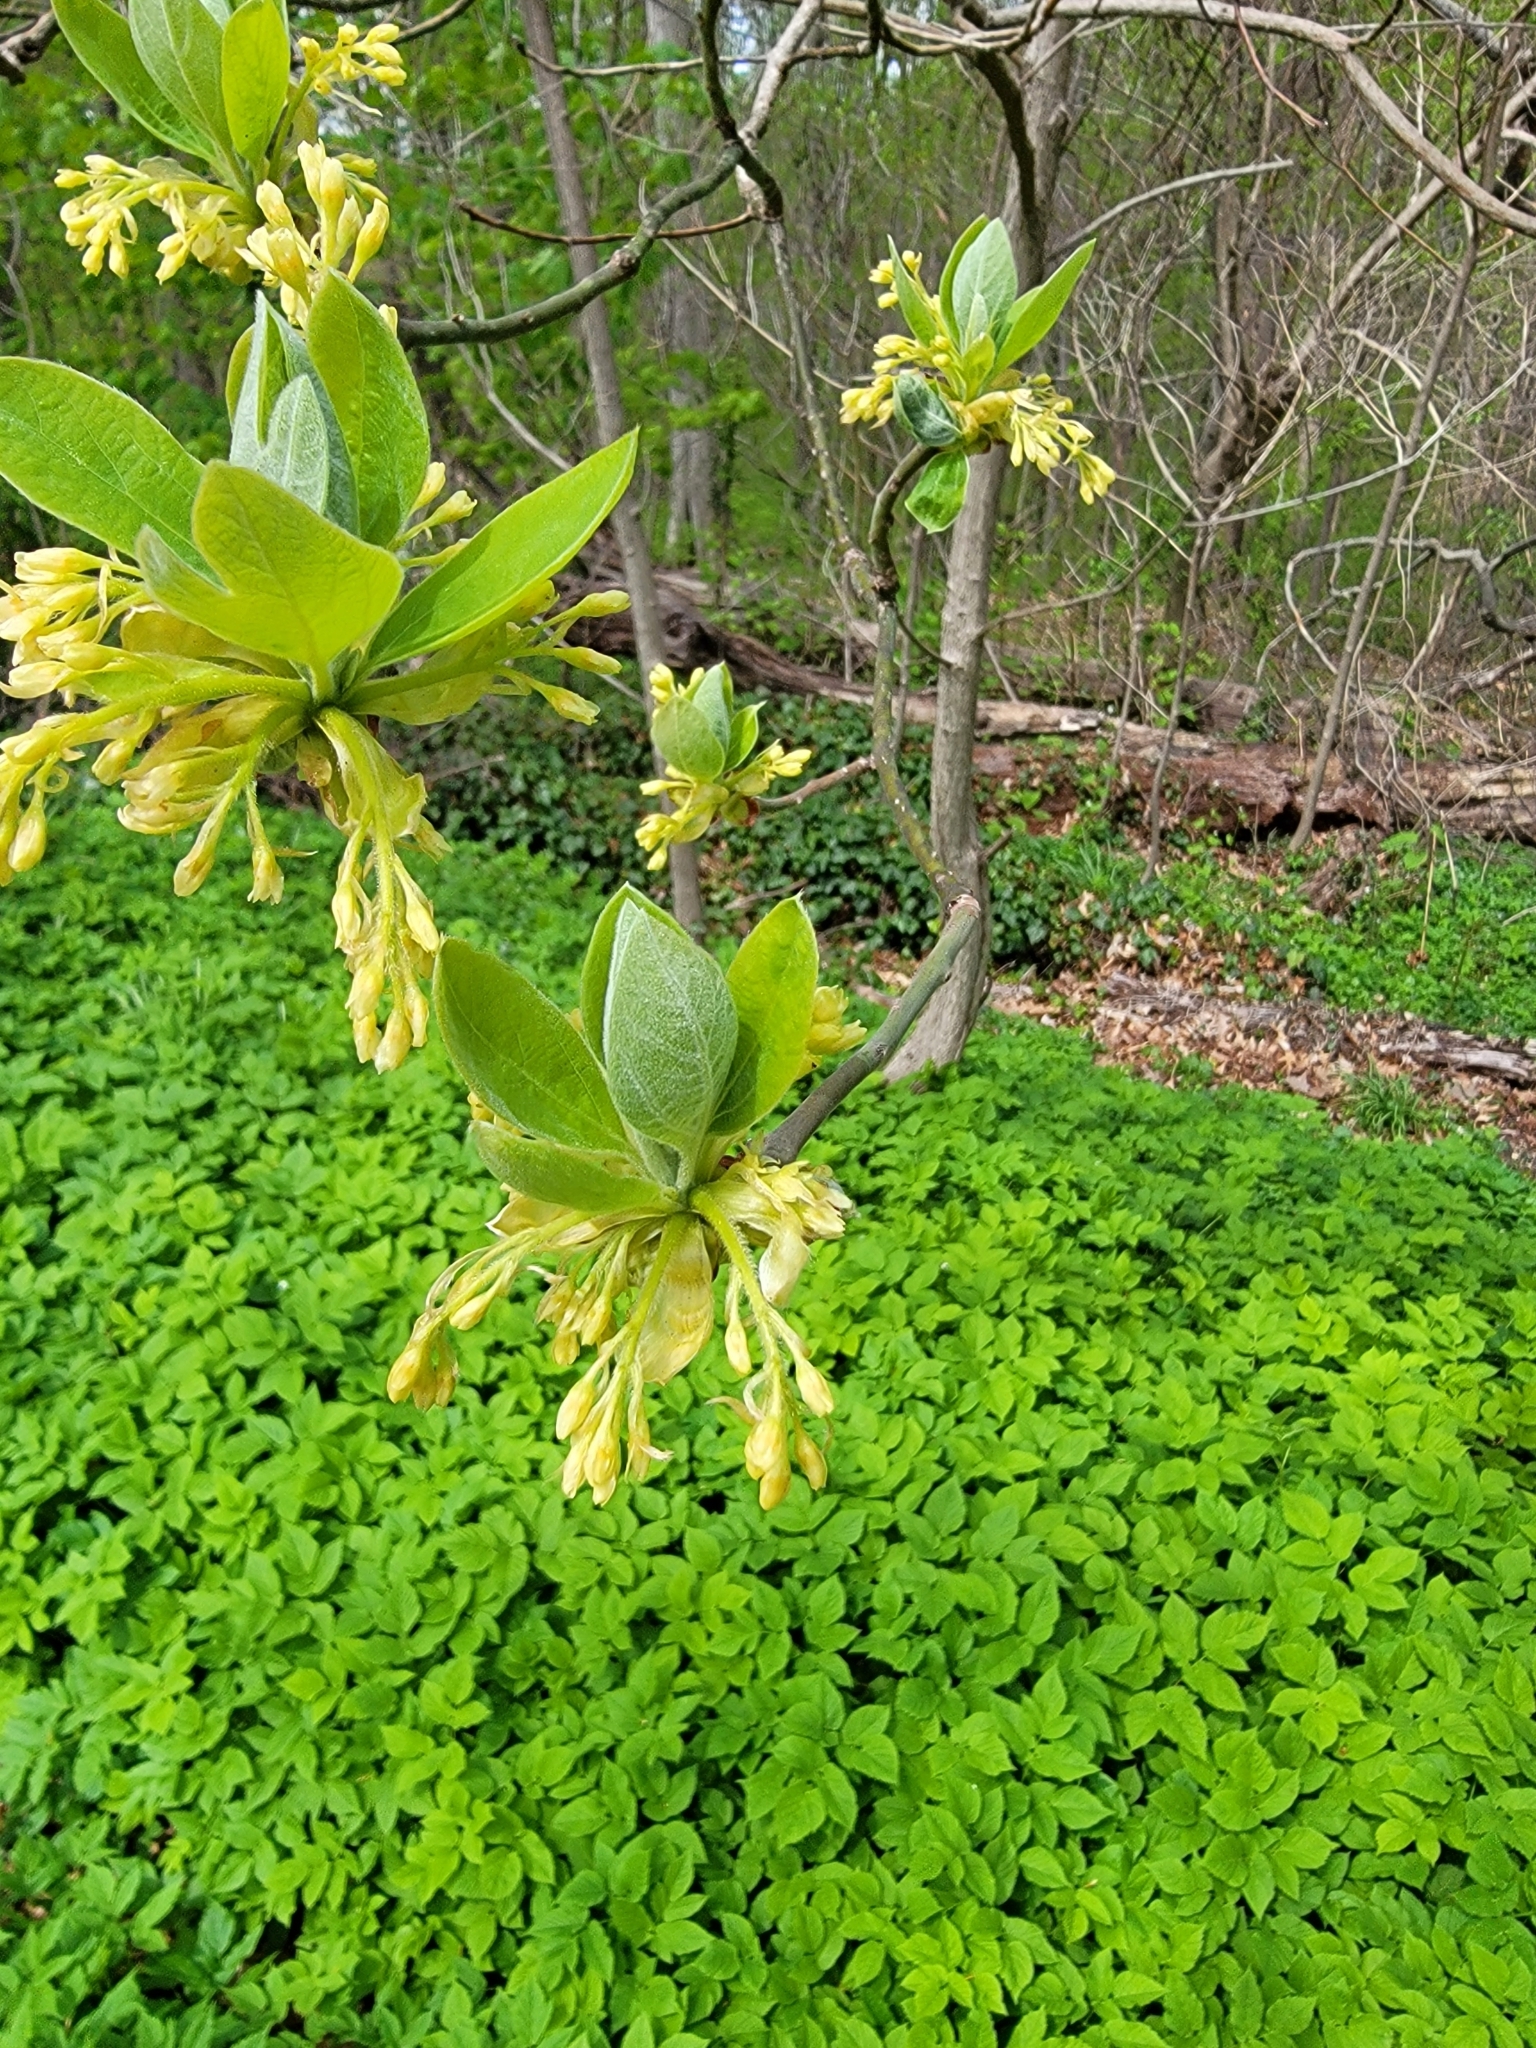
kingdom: Plantae
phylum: Tracheophyta
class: Magnoliopsida
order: Laurales
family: Lauraceae
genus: Sassafras
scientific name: Sassafras albidum
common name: Sassafras
